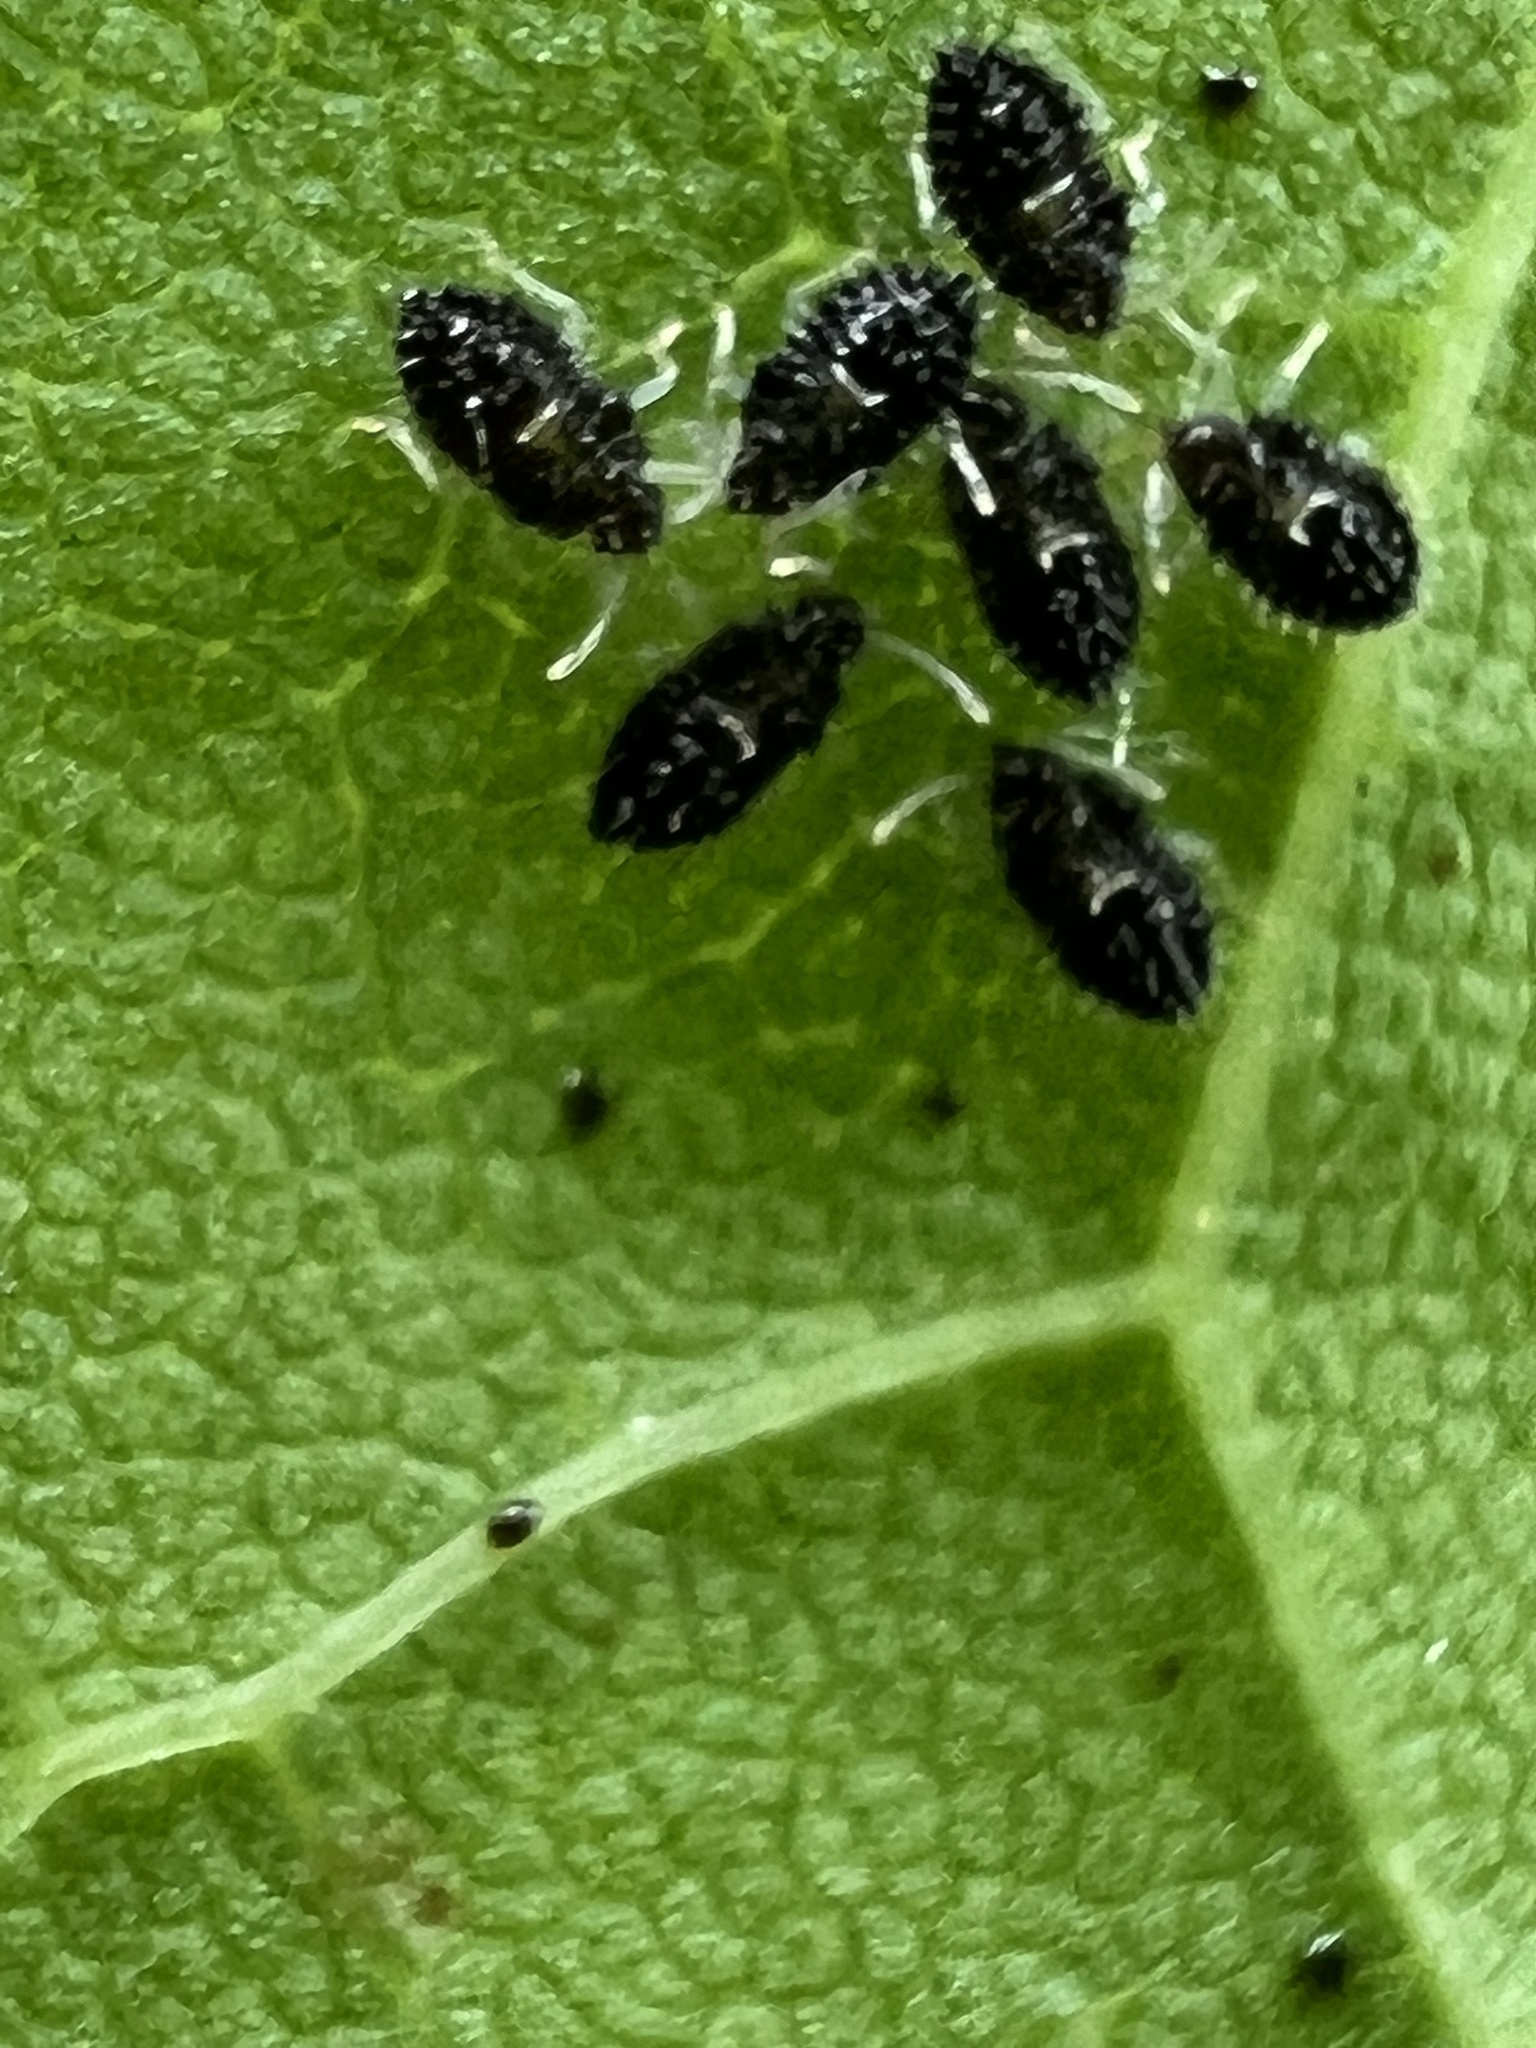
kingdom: Animalia
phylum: Arthropoda
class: Insecta
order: Hemiptera
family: Tingidae
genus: Corythucha
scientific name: Corythucha ciliata
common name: Sycamore lace bug
